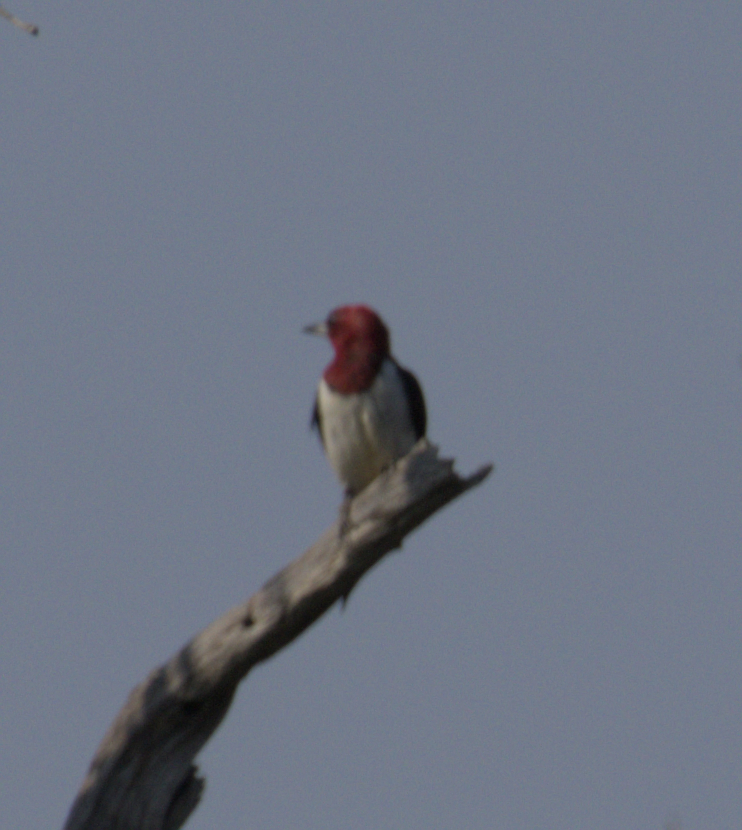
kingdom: Animalia
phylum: Chordata
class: Aves
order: Piciformes
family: Picidae
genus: Melanerpes
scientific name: Melanerpes erythrocephalus
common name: Red-headed woodpecker
